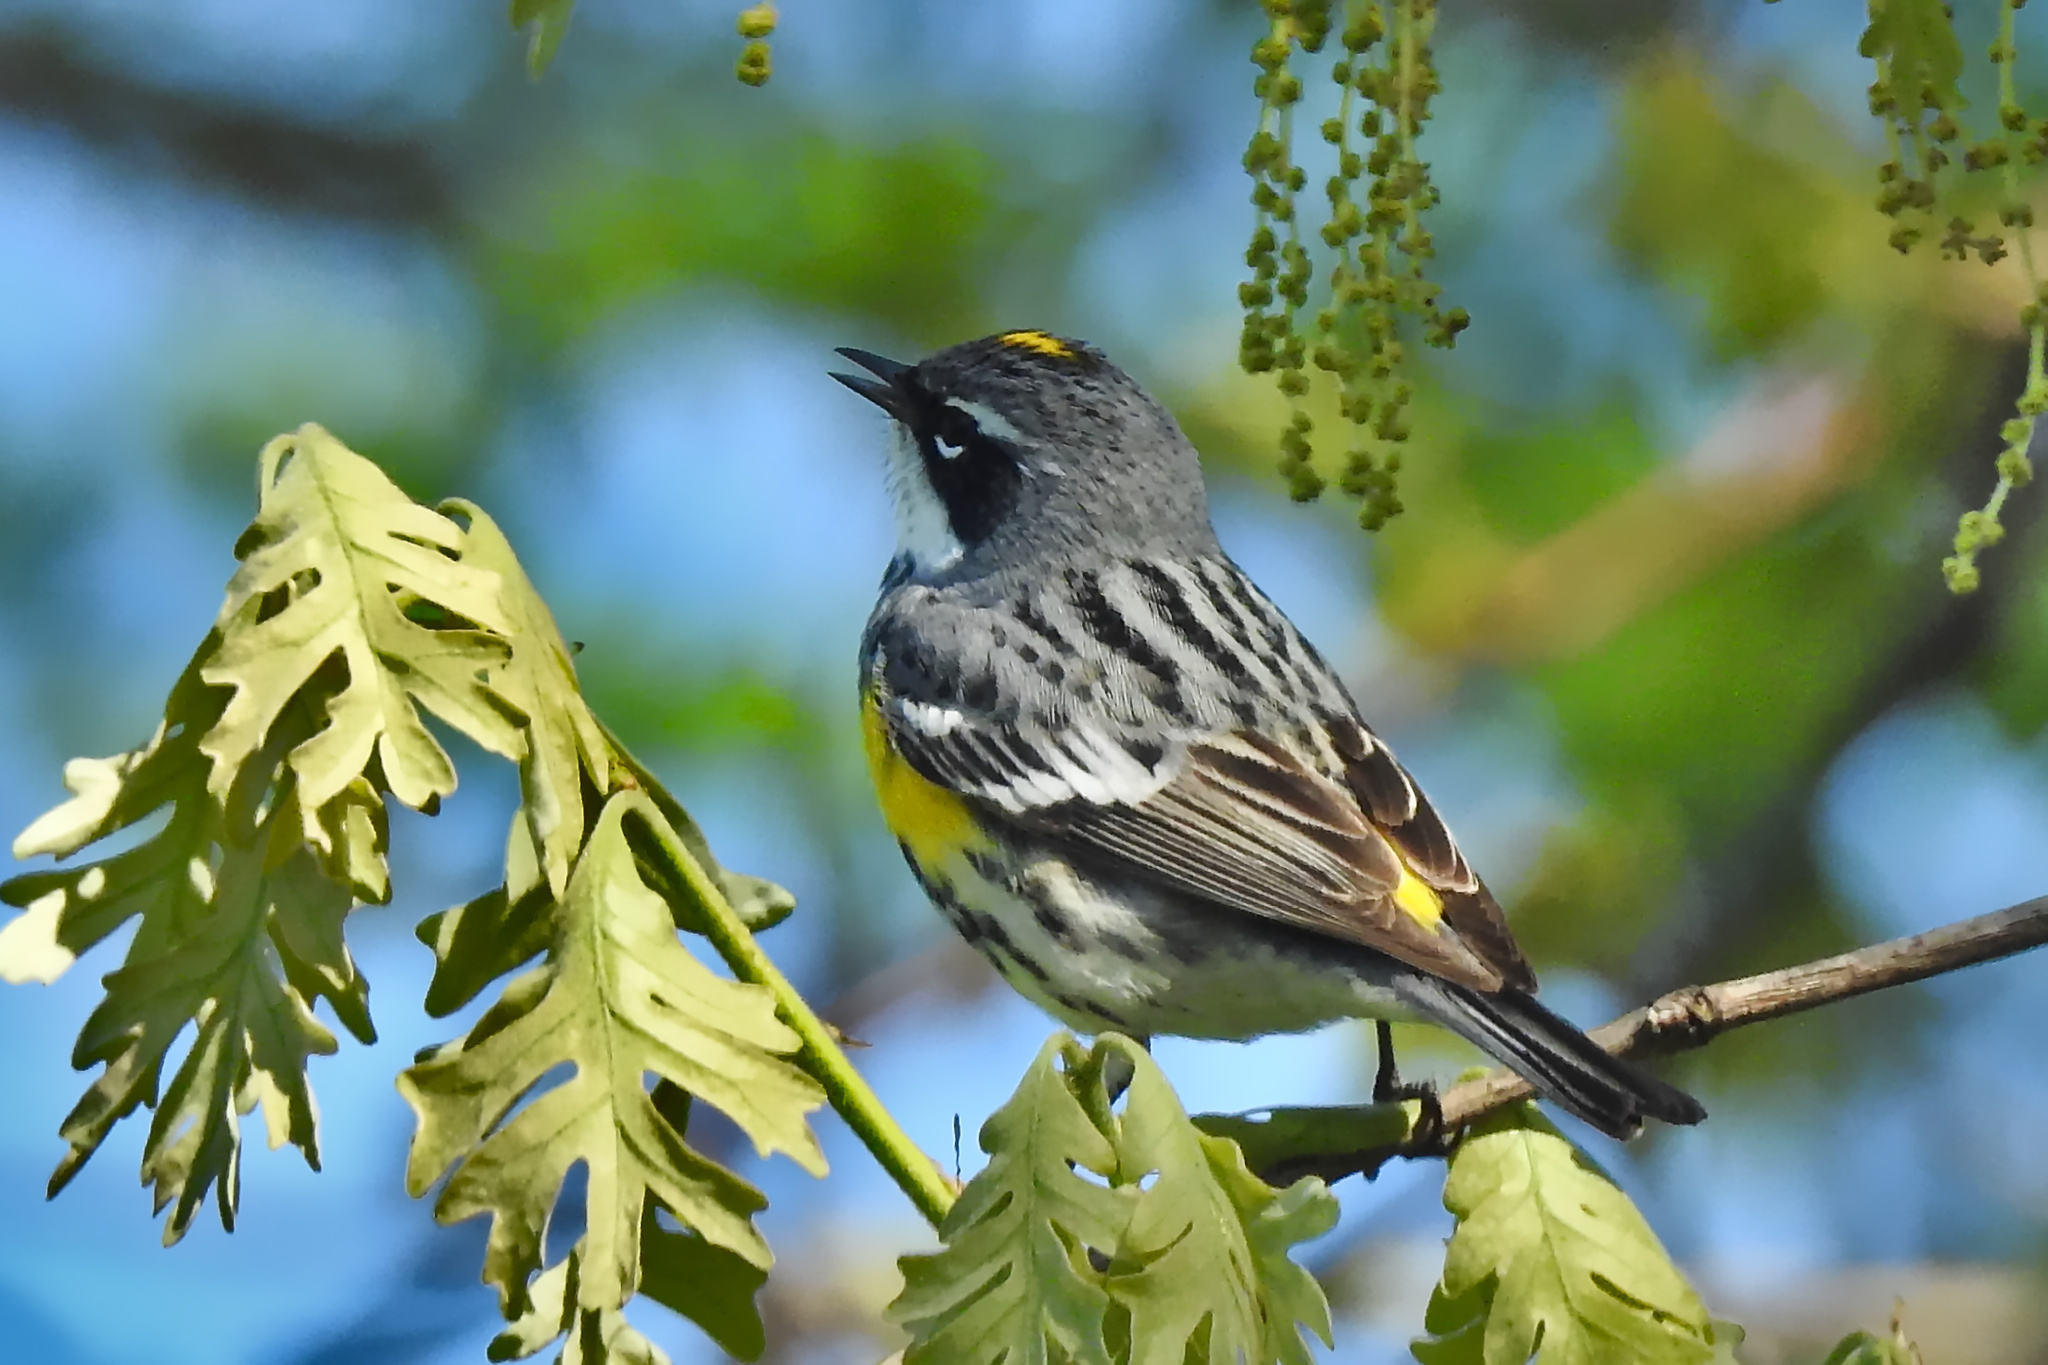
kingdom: Animalia
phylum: Chordata
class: Aves
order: Passeriformes
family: Parulidae
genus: Setophaga
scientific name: Setophaga coronata
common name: Myrtle warbler
